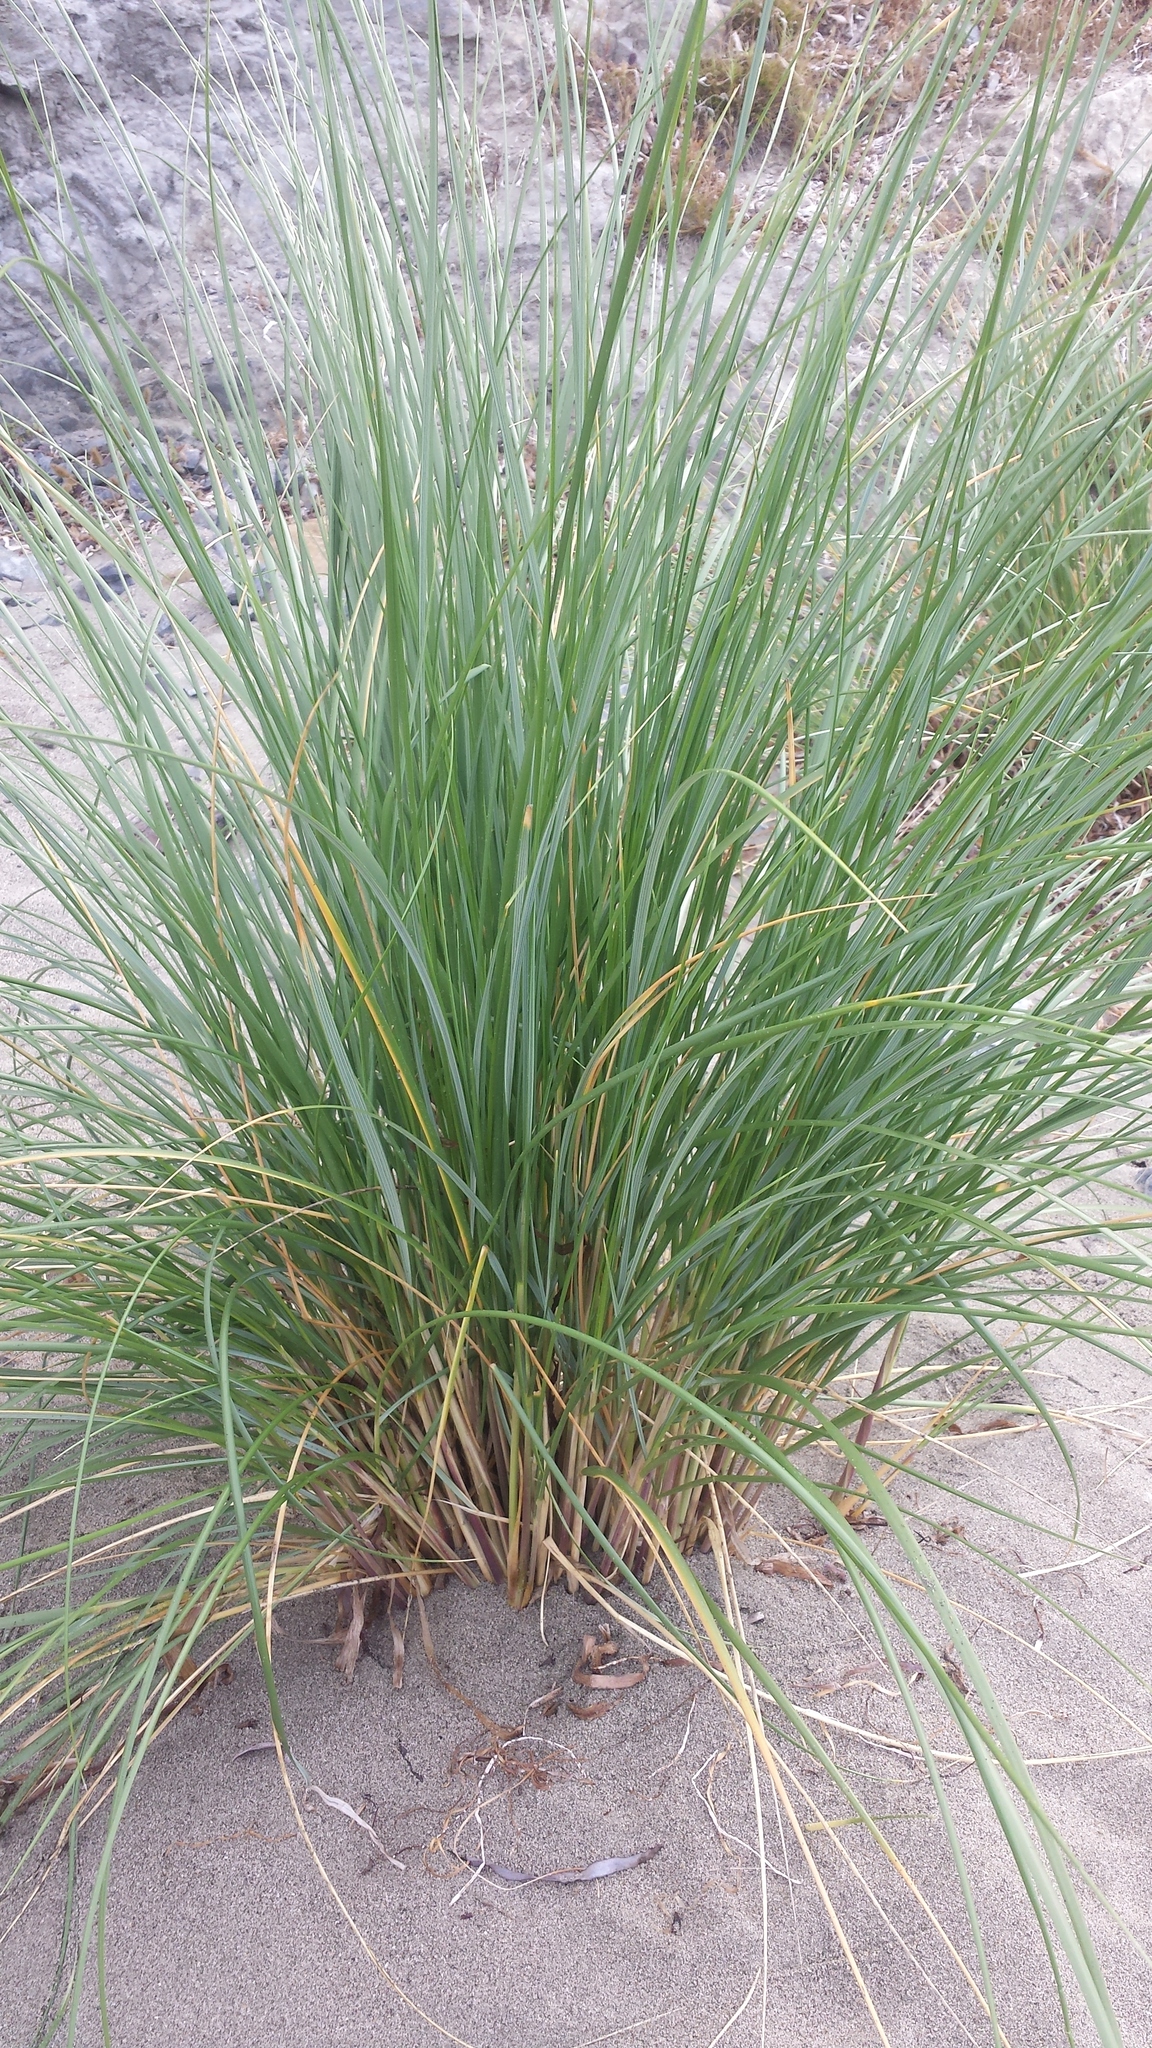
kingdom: Plantae
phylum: Tracheophyta
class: Liliopsida
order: Poales
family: Poaceae
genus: Calamagrostis
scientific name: Calamagrostis arenaria
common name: European beachgrass
